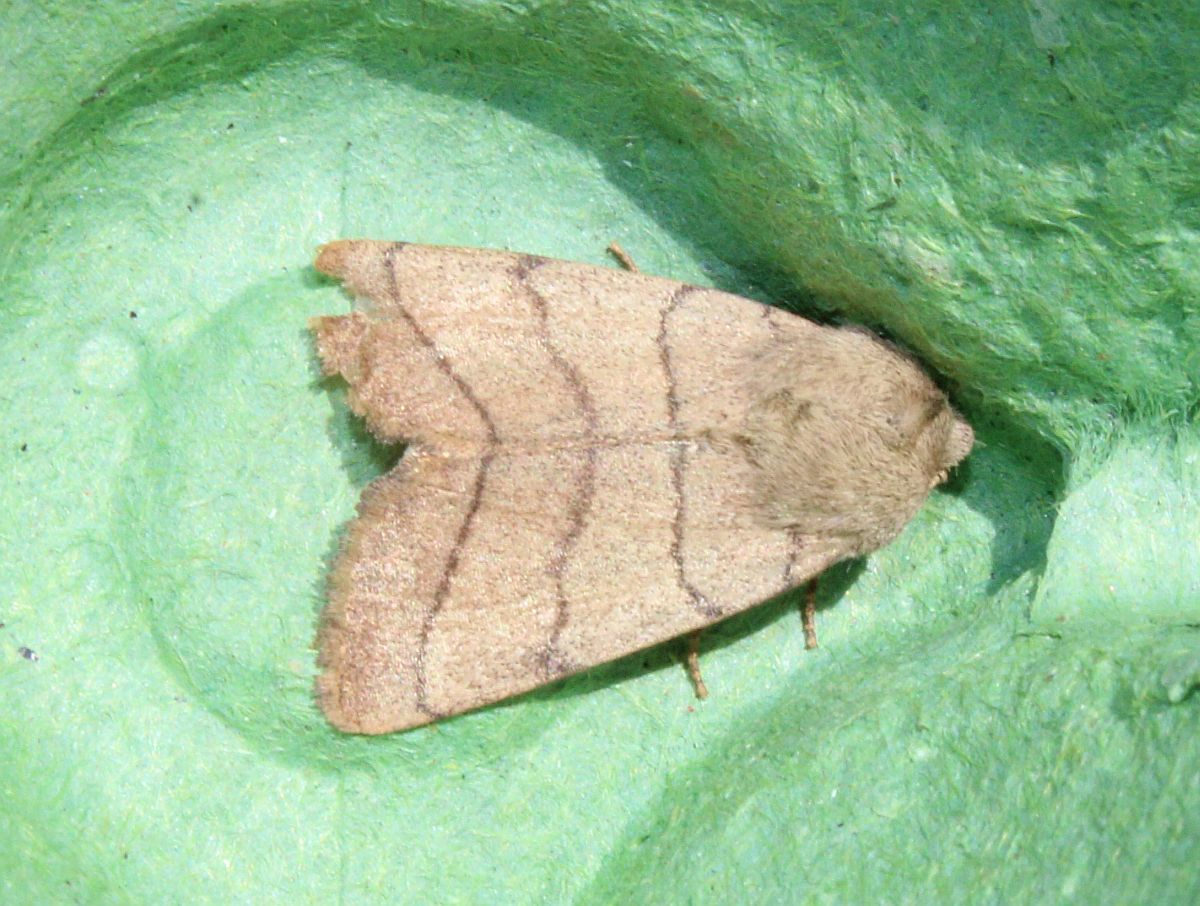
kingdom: Animalia
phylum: Arthropoda
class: Insecta
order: Lepidoptera
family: Noctuidae
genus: Charanyca
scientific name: Charanyca trigrammica
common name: Treble lines
